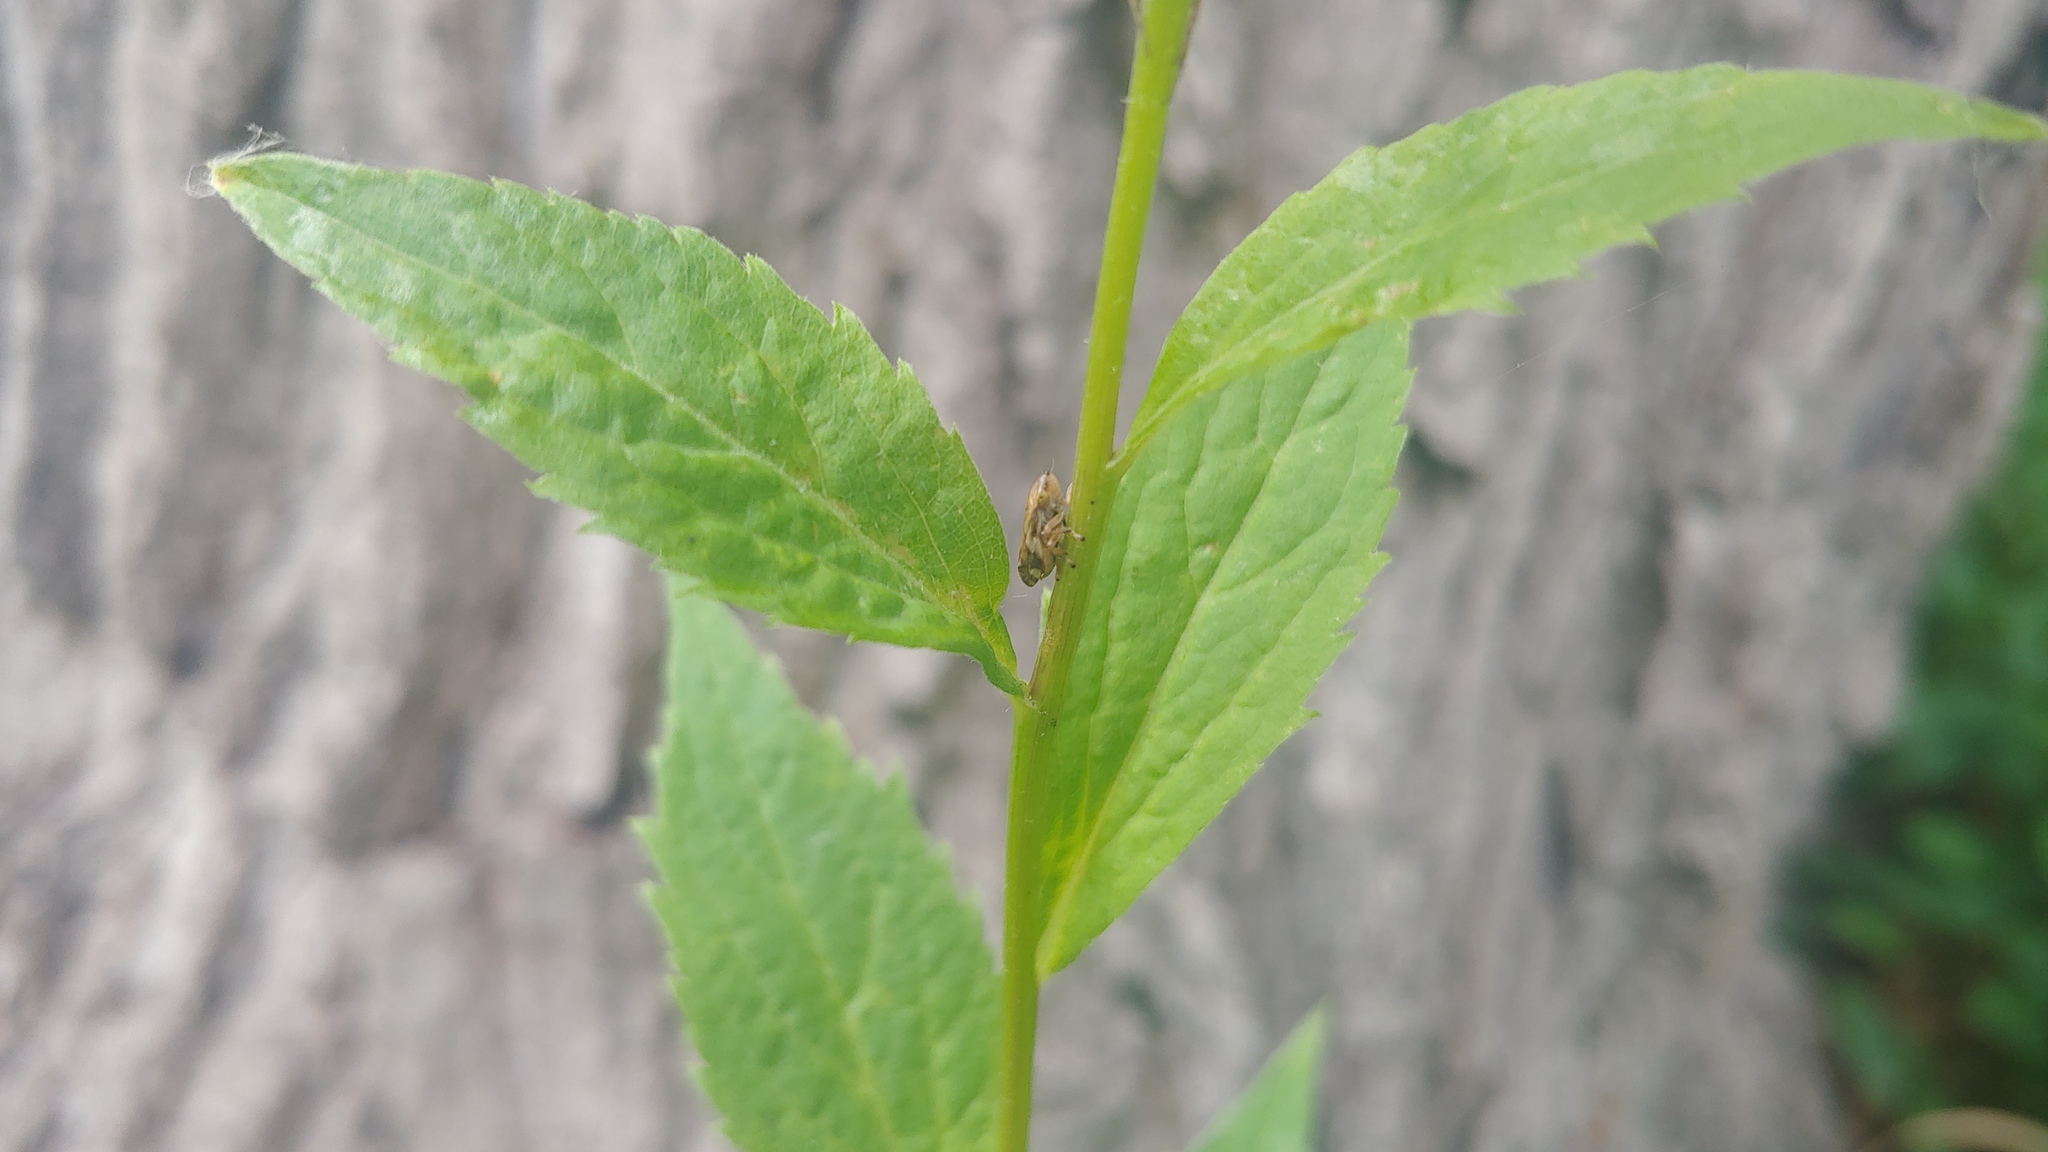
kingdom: Animalia
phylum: Arthropoda
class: Insecta
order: Hemiptera
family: Aphrophoridae
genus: Philaenus
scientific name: Philaenus spumarius
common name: Meadow spittlebug
